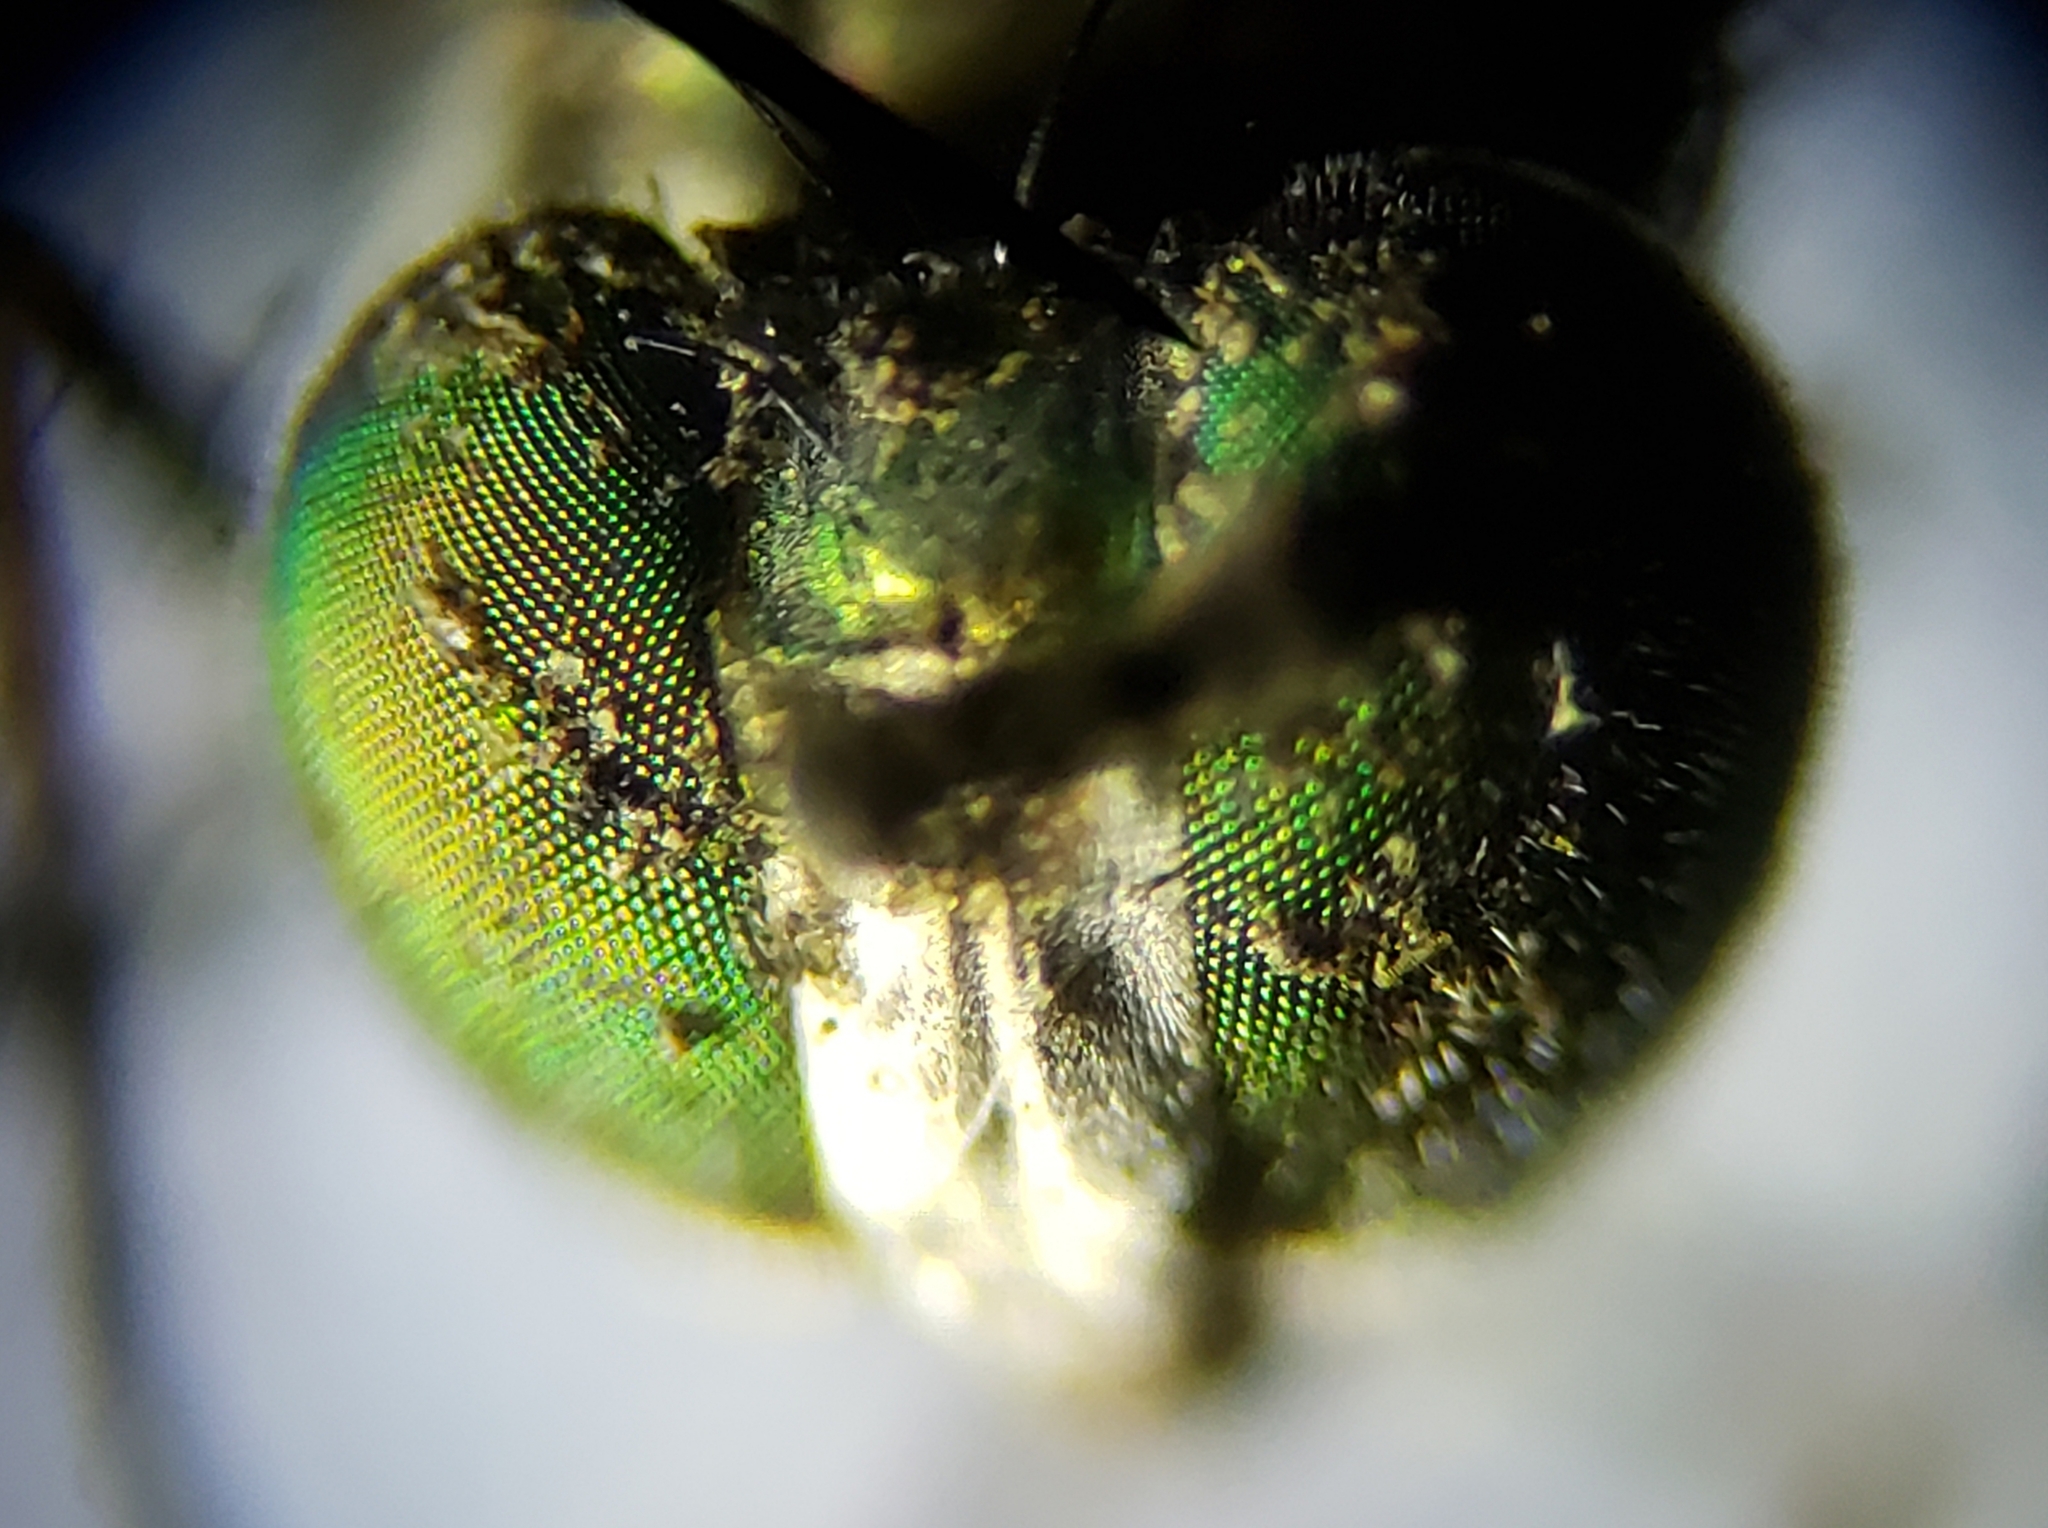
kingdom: Animalia
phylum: Arthropoda
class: Insecta
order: Diptera
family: Dolichopodidae
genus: Plagioneurus
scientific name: Plagioneurus univittatus
